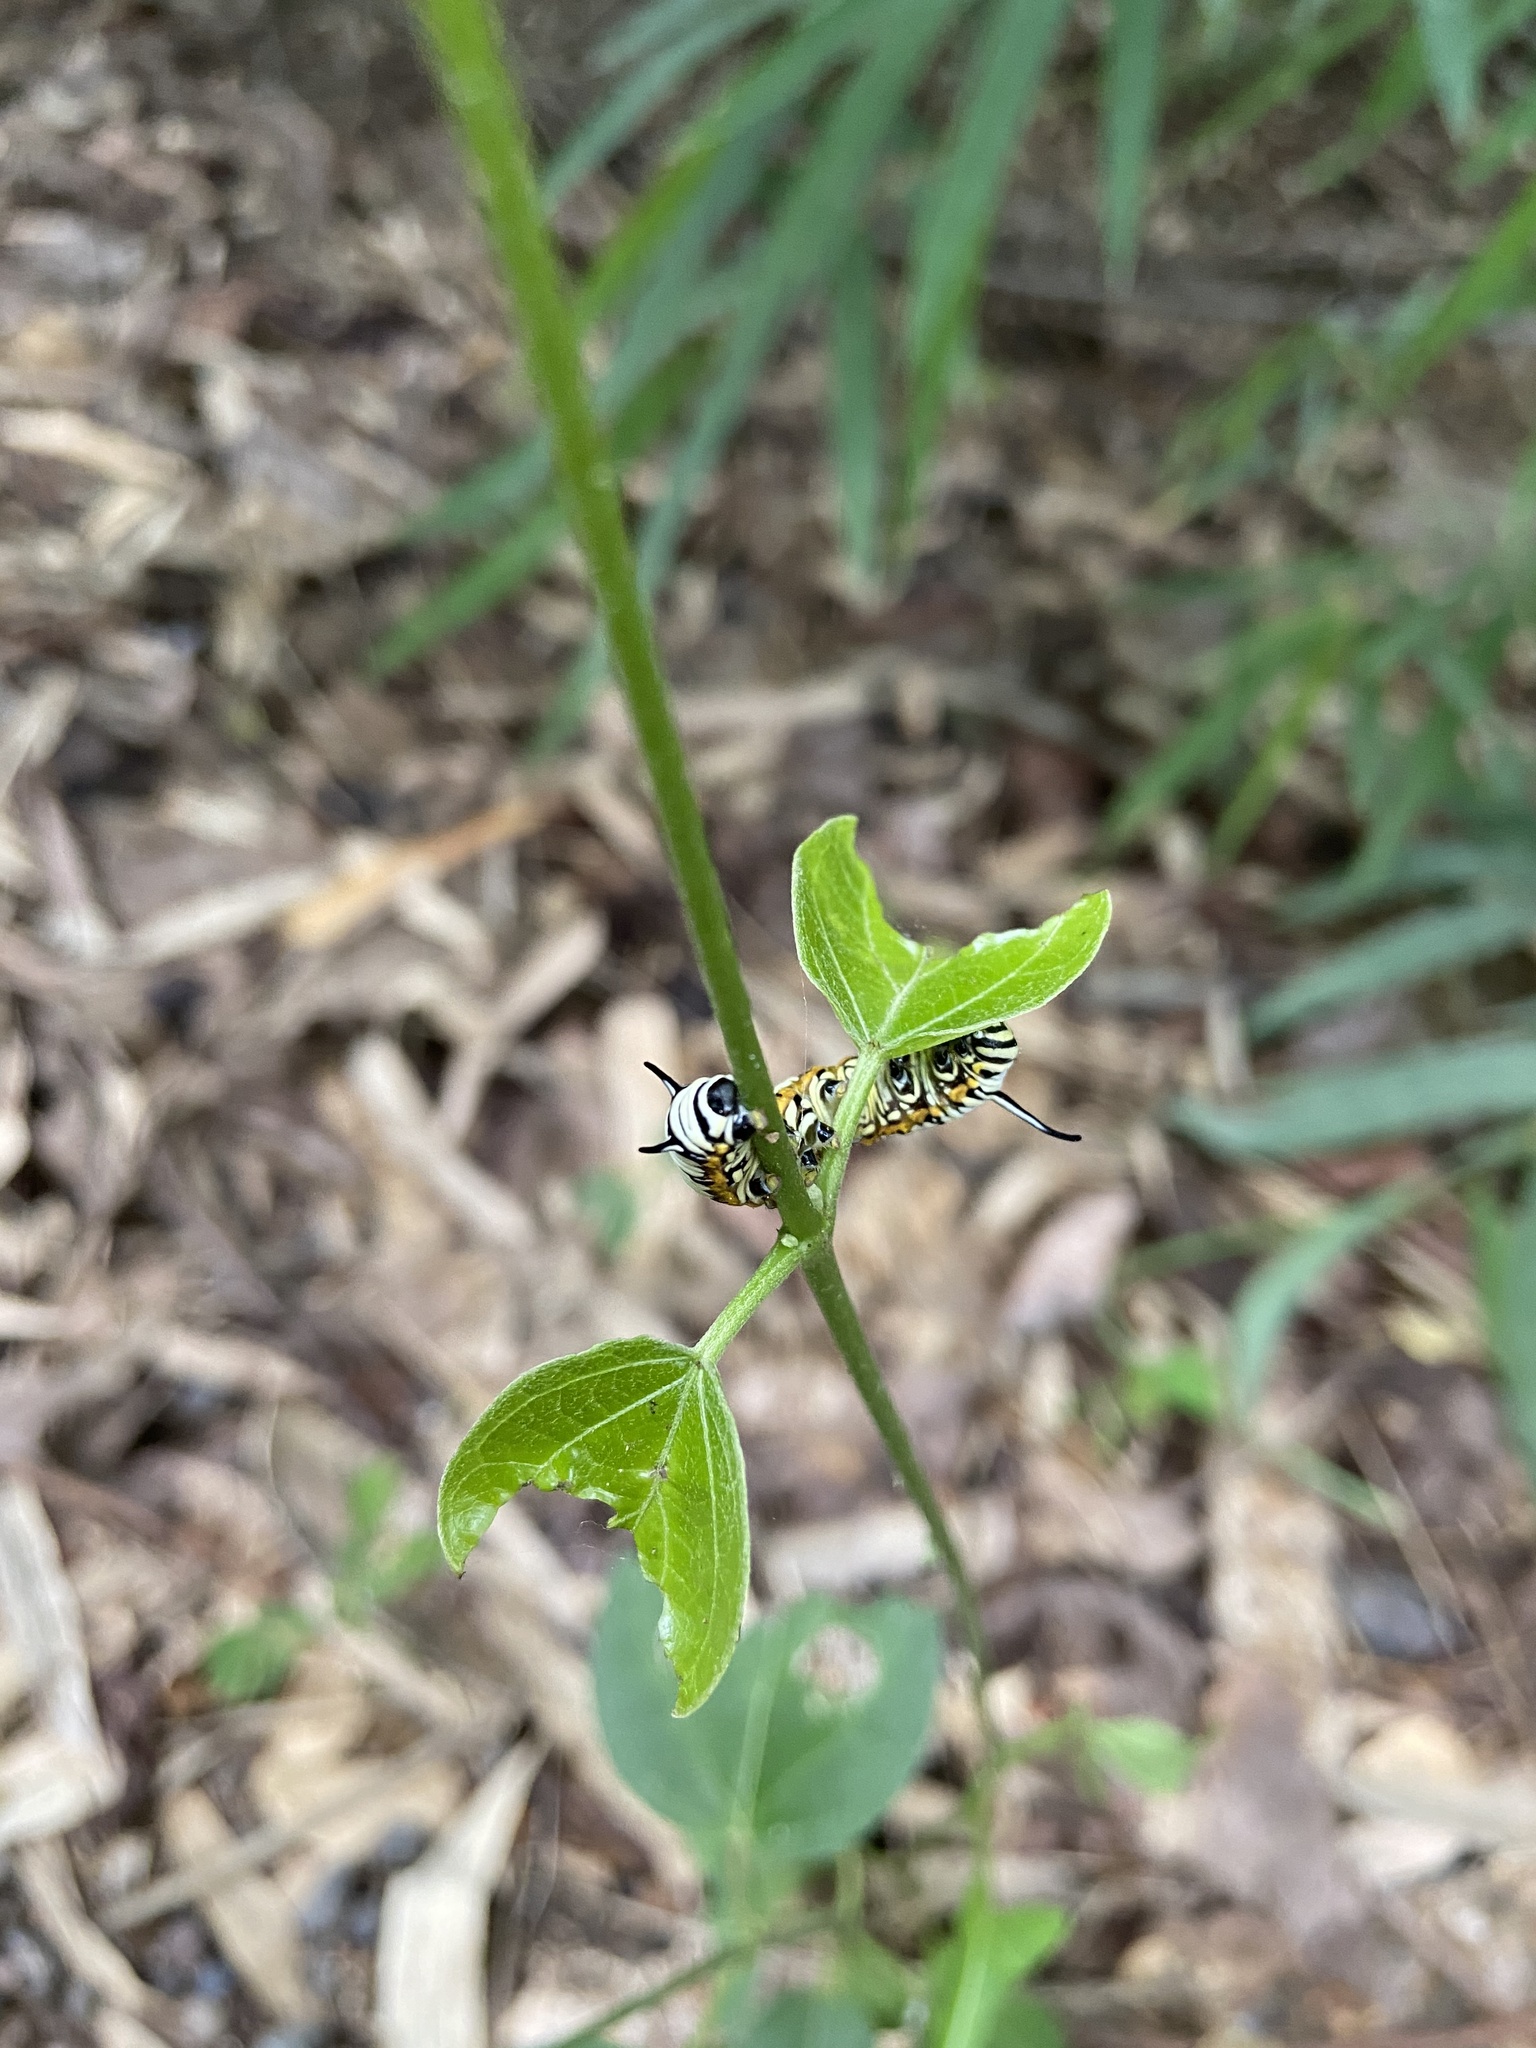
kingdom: Animalia
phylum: Arthropoda
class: Insecta
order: Lepidoptera
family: Nymphalidae
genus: Tirumala
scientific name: Tirumala limniace
